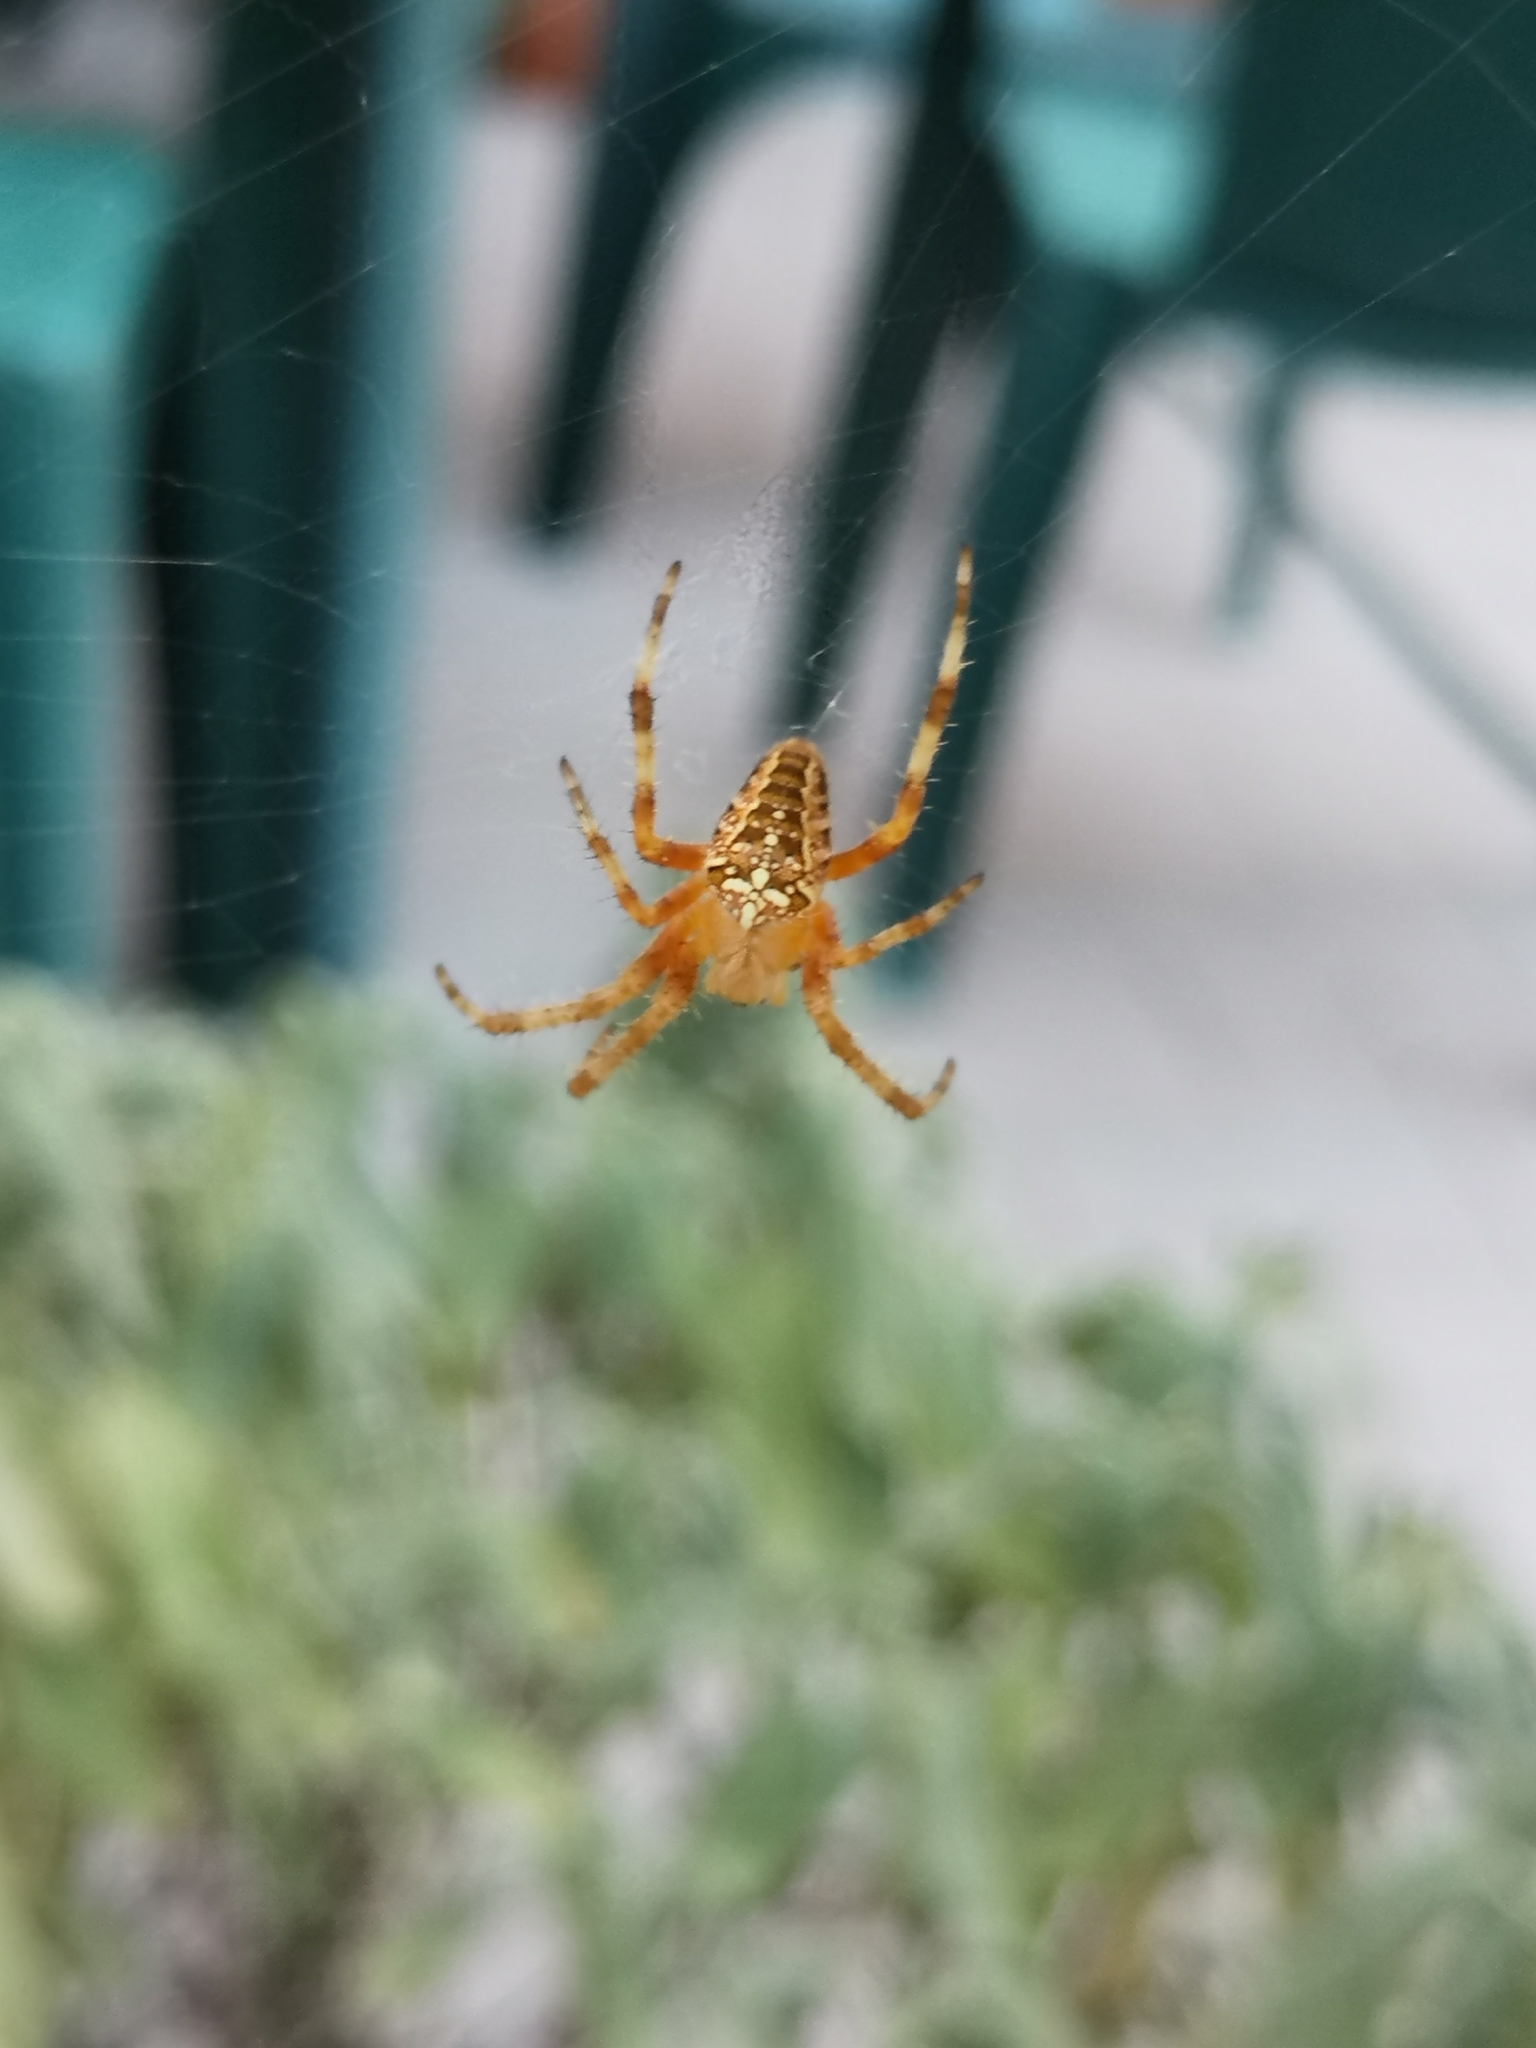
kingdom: Animalia
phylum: Arthropoda
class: Arachnida
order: Araneae
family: Araneidae
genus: Araneus
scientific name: Araneus diadematus
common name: Cross orbweaver
